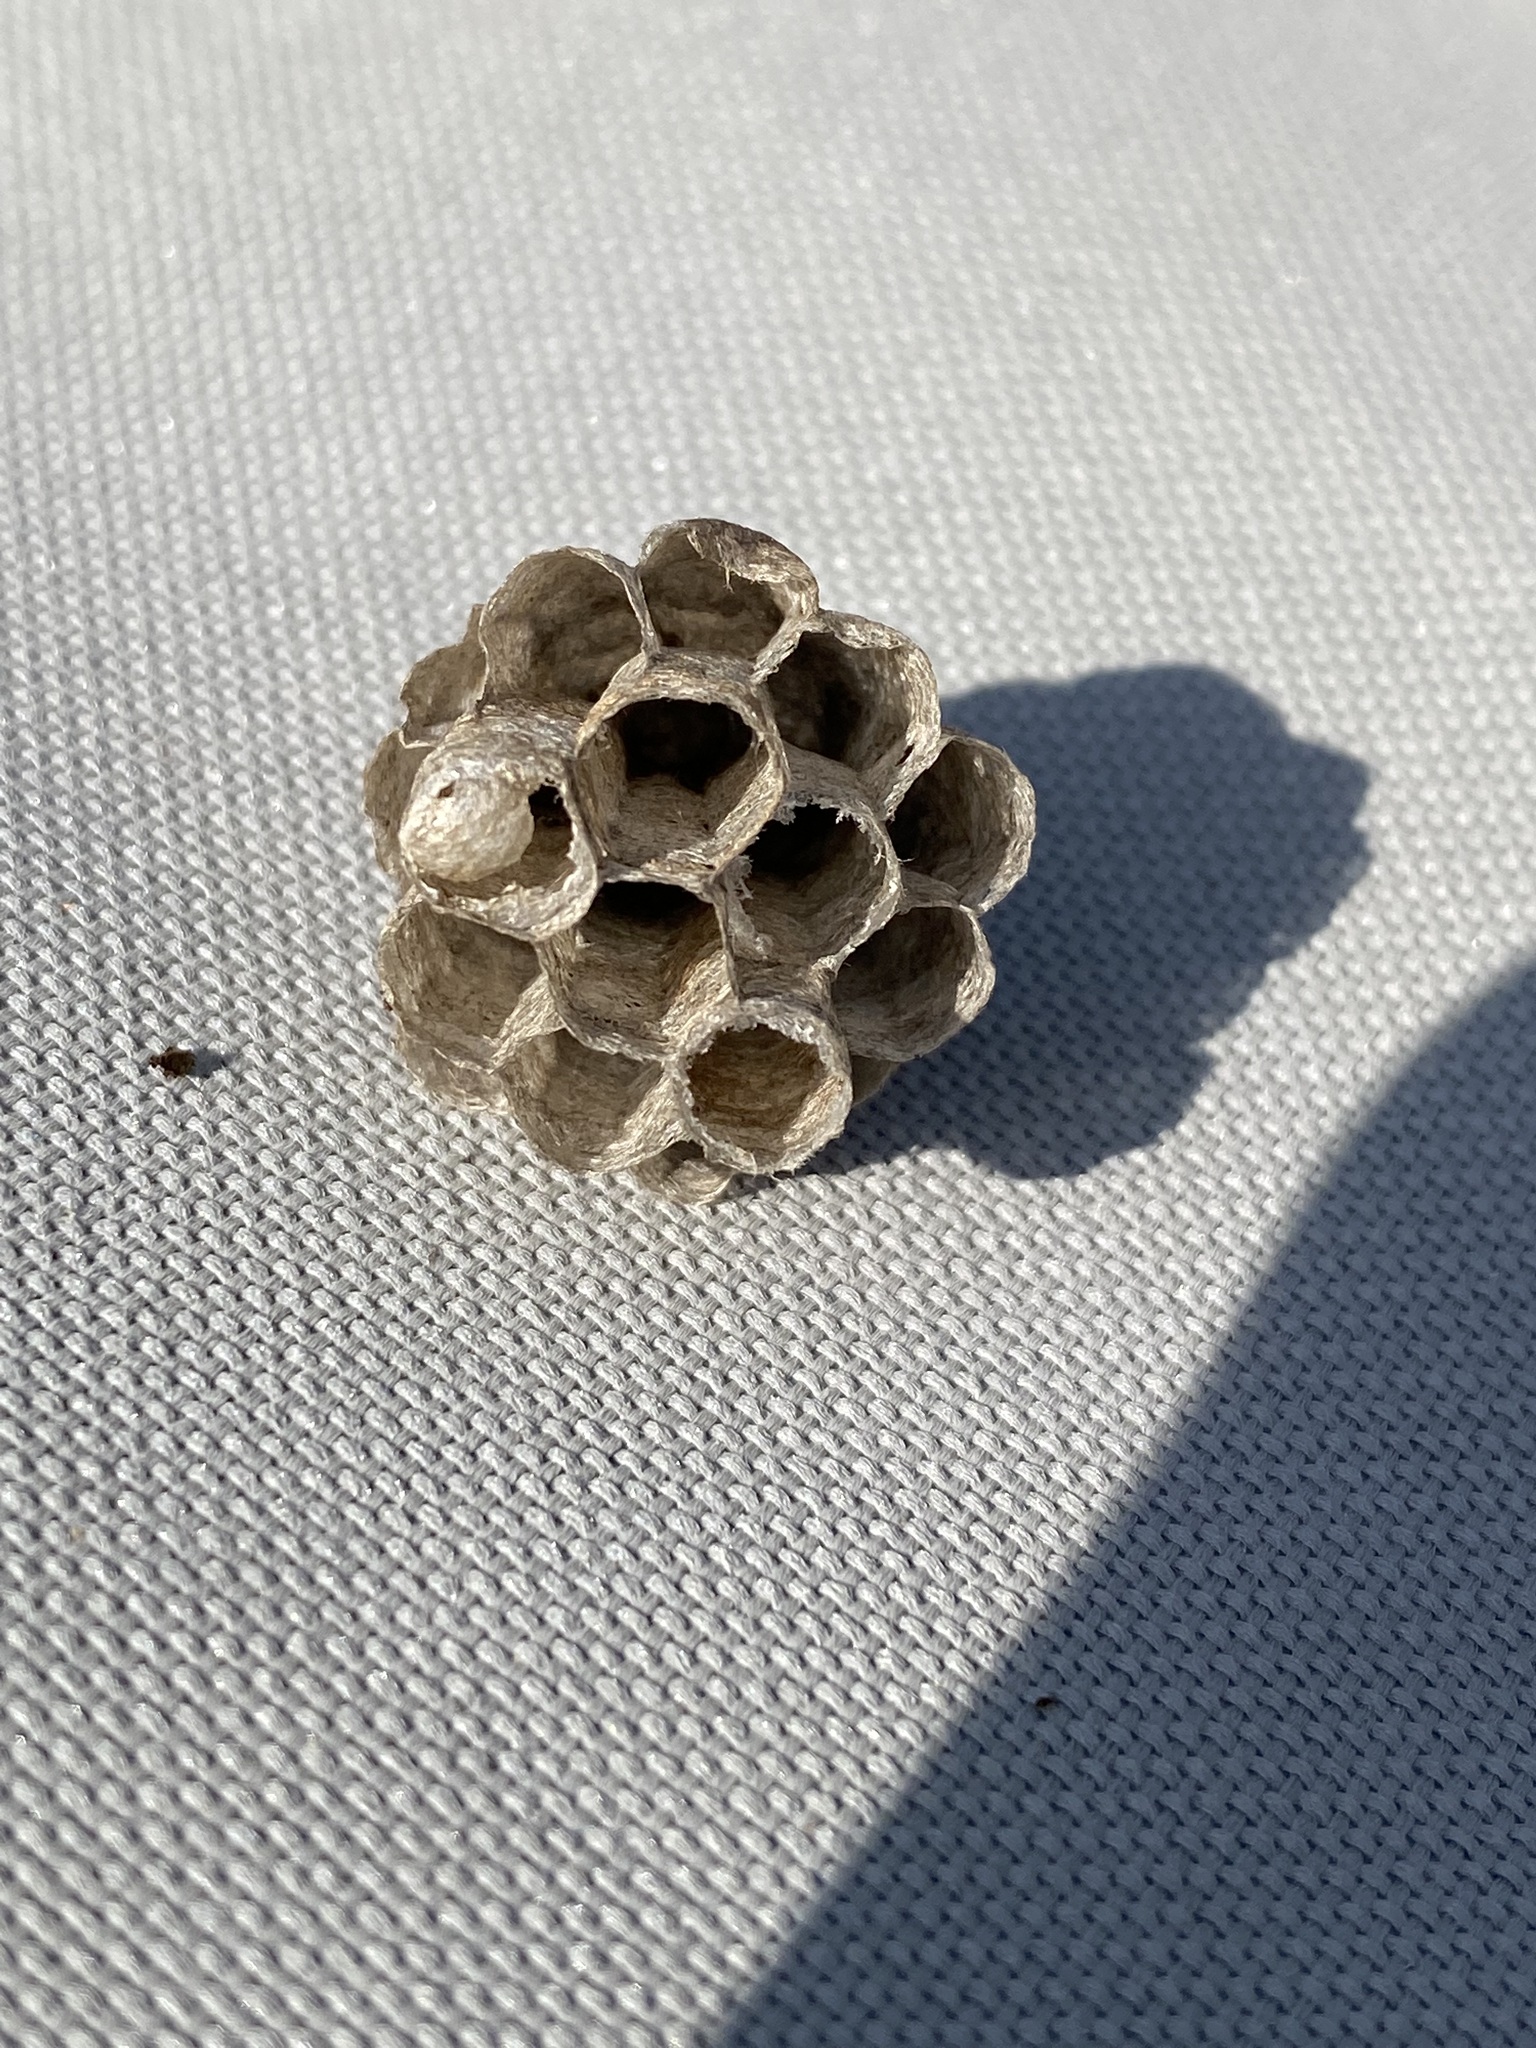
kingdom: Animalia
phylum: Arthropoda
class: Insecta
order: Hymenoptera
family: Eumenidae
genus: Polistes
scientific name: Polistes fuscatus
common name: Dark paper wasp
